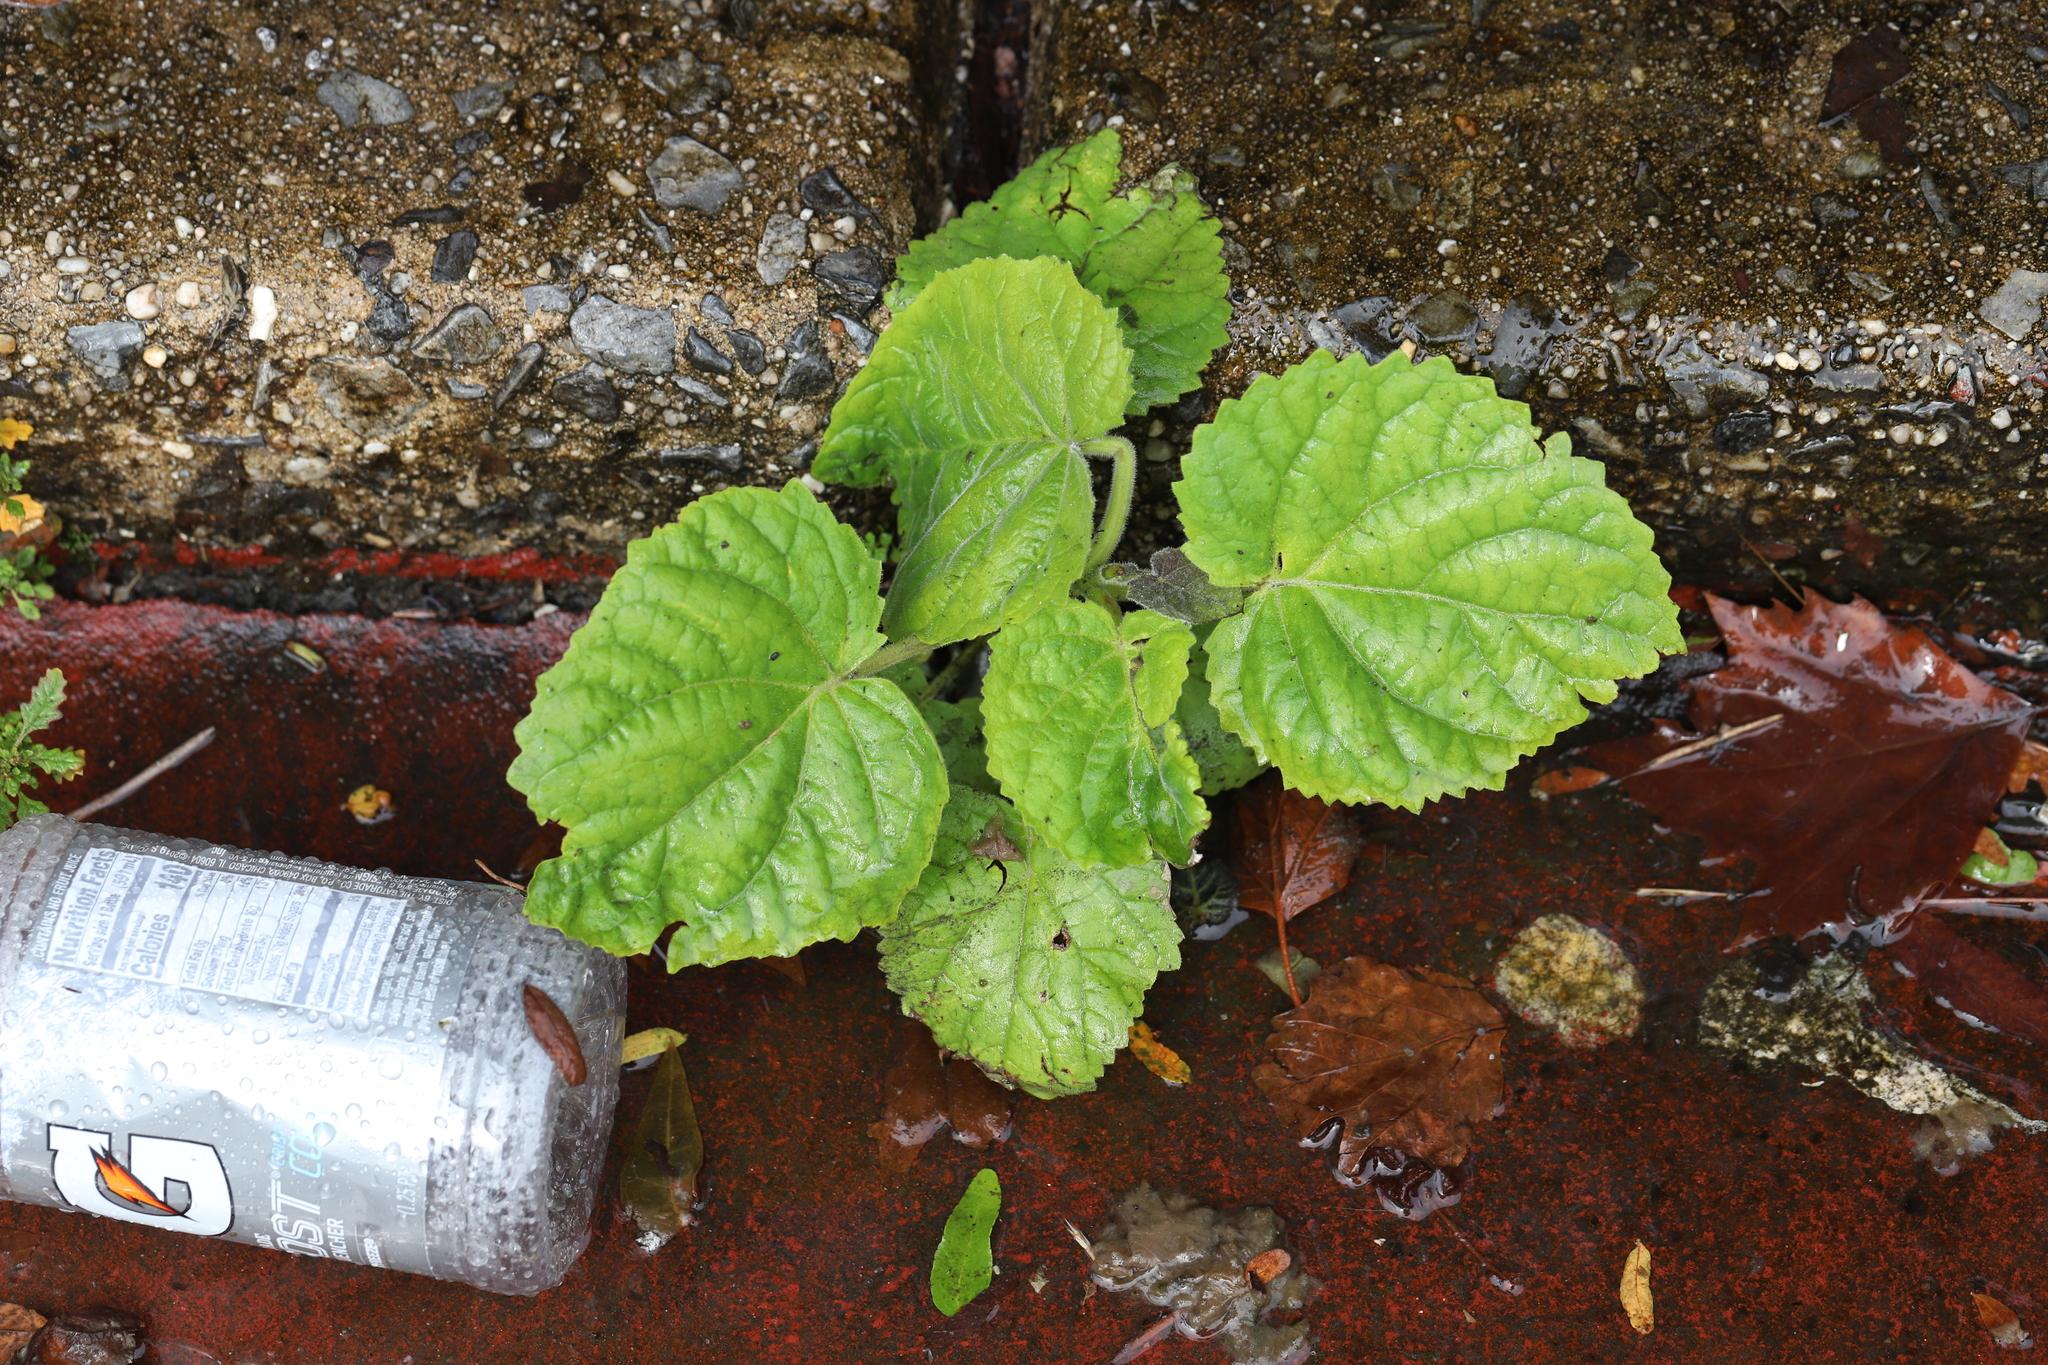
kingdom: Plantae
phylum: Tracheophyta
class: Magnoliopsida
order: Lamiales
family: Paulowniaceae
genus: Paulownia
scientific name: Paulownia tomentosa
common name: Foxglove-tree
